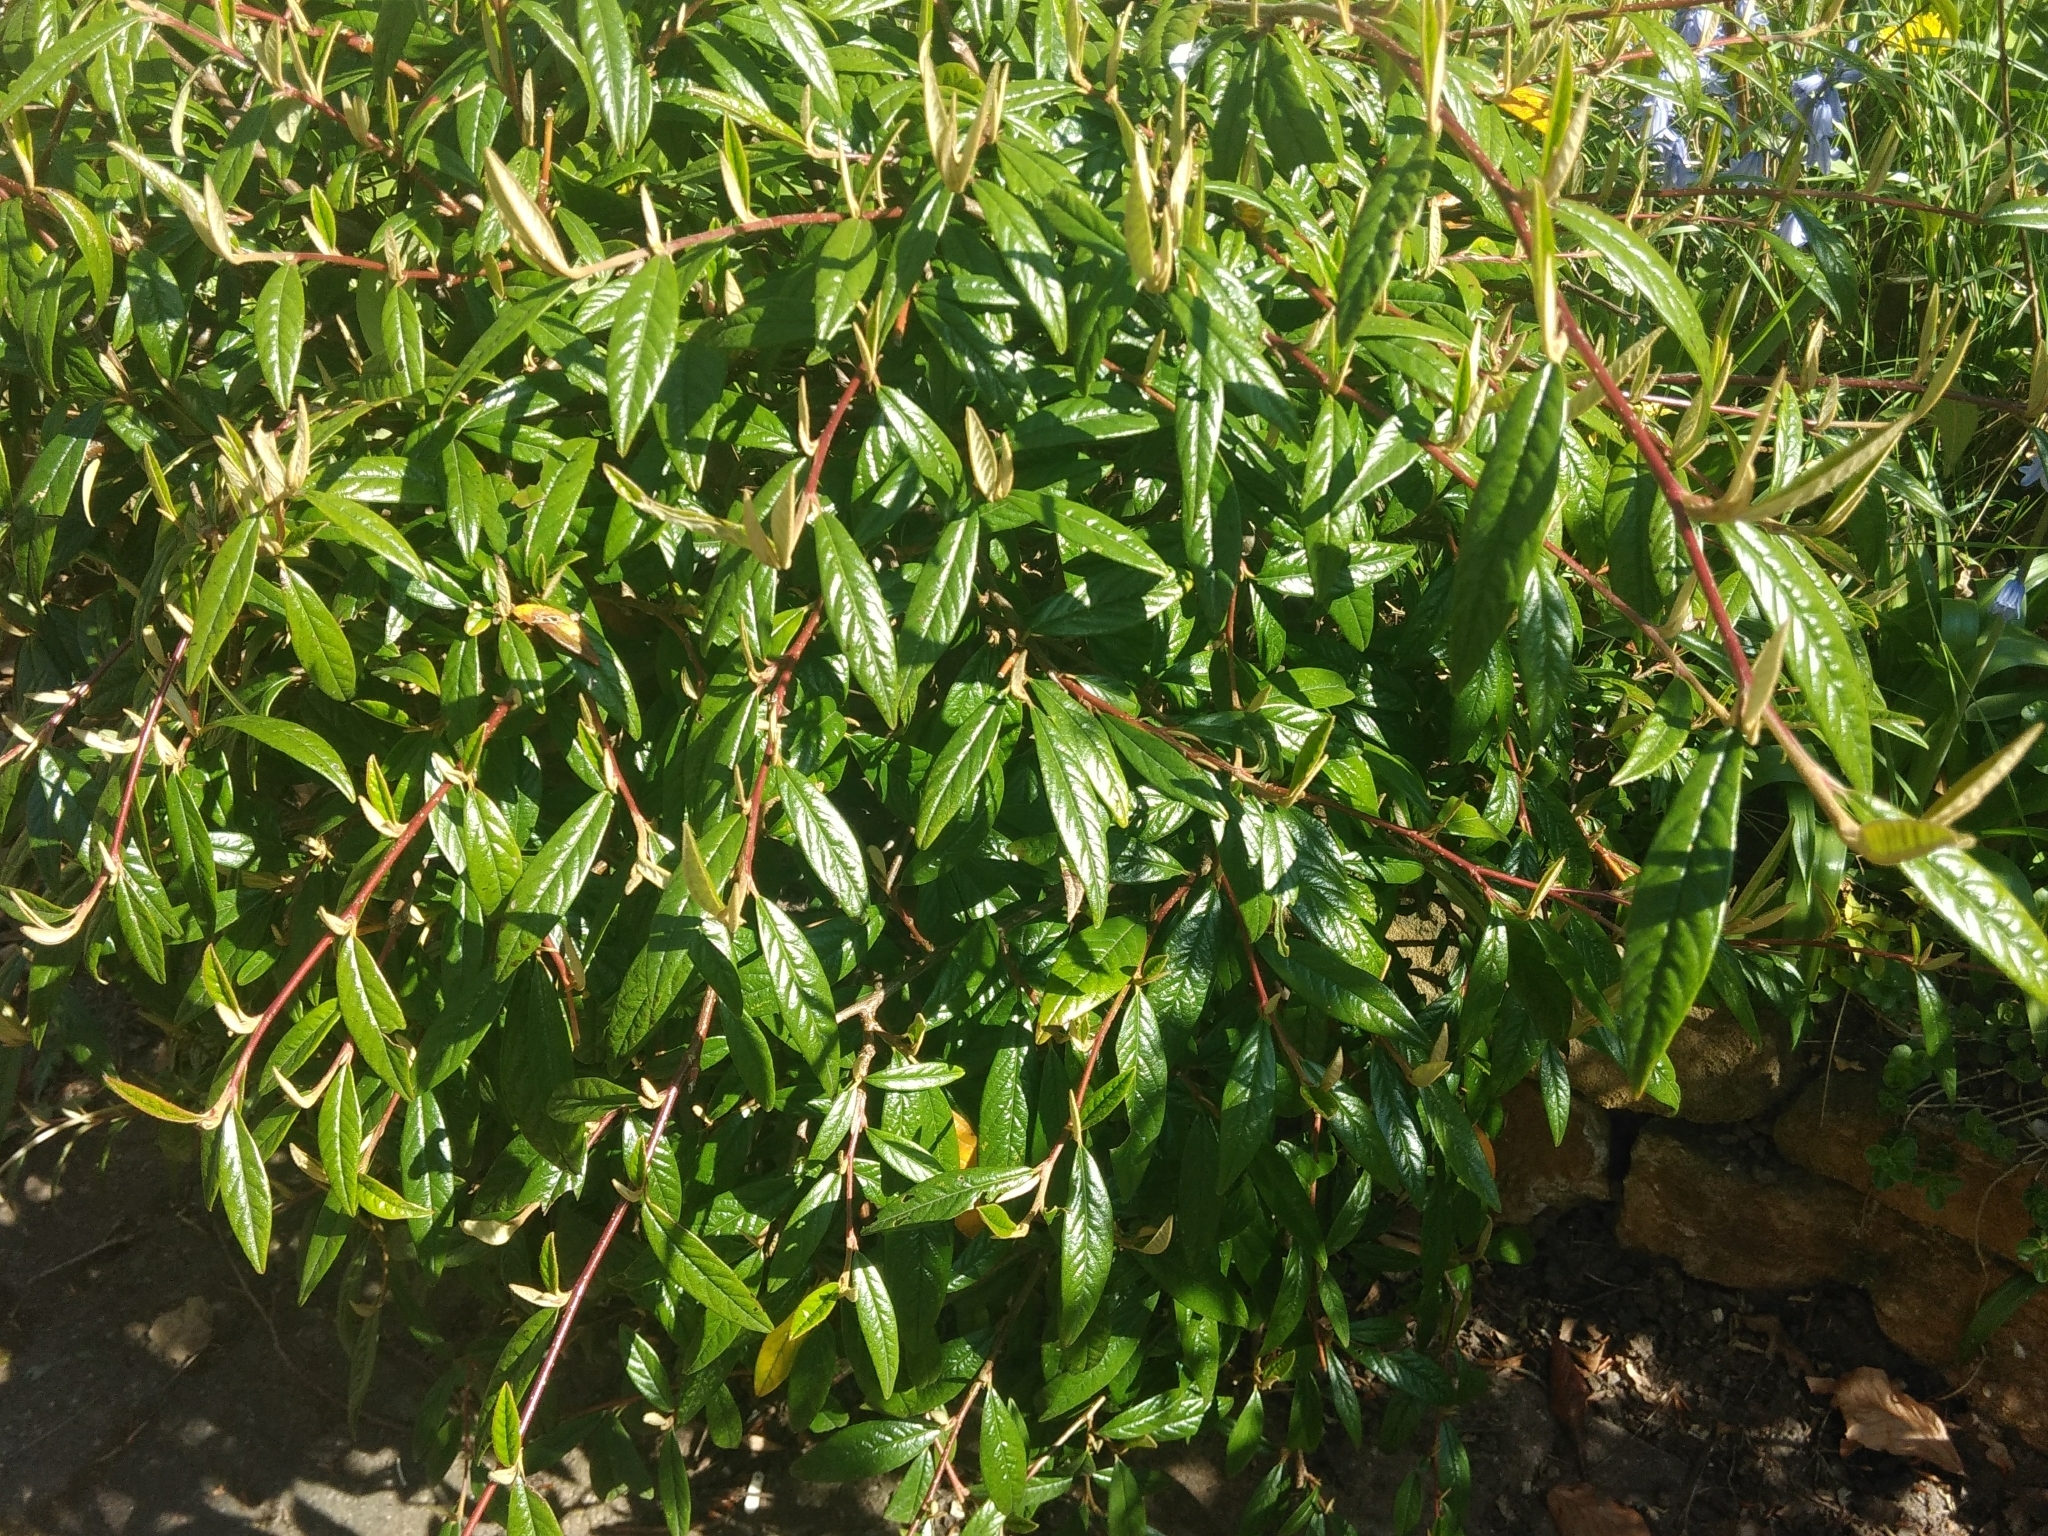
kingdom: Plantae
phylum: Tracheophyta
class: Magnoliopsida
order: Rosales
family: Rosaceae
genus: Cotoneaster
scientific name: Cotoneaster salicifolius
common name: Willow-leaved cotoneaster
